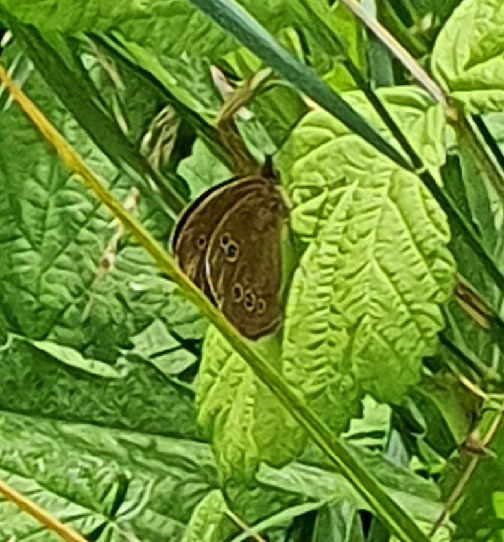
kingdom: Animalia
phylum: Arthropoda
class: Insecta
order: Lepidoptera
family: Nymphalidae
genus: Aphantopus
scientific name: Aphantopus hyperantus
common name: Ringlet
